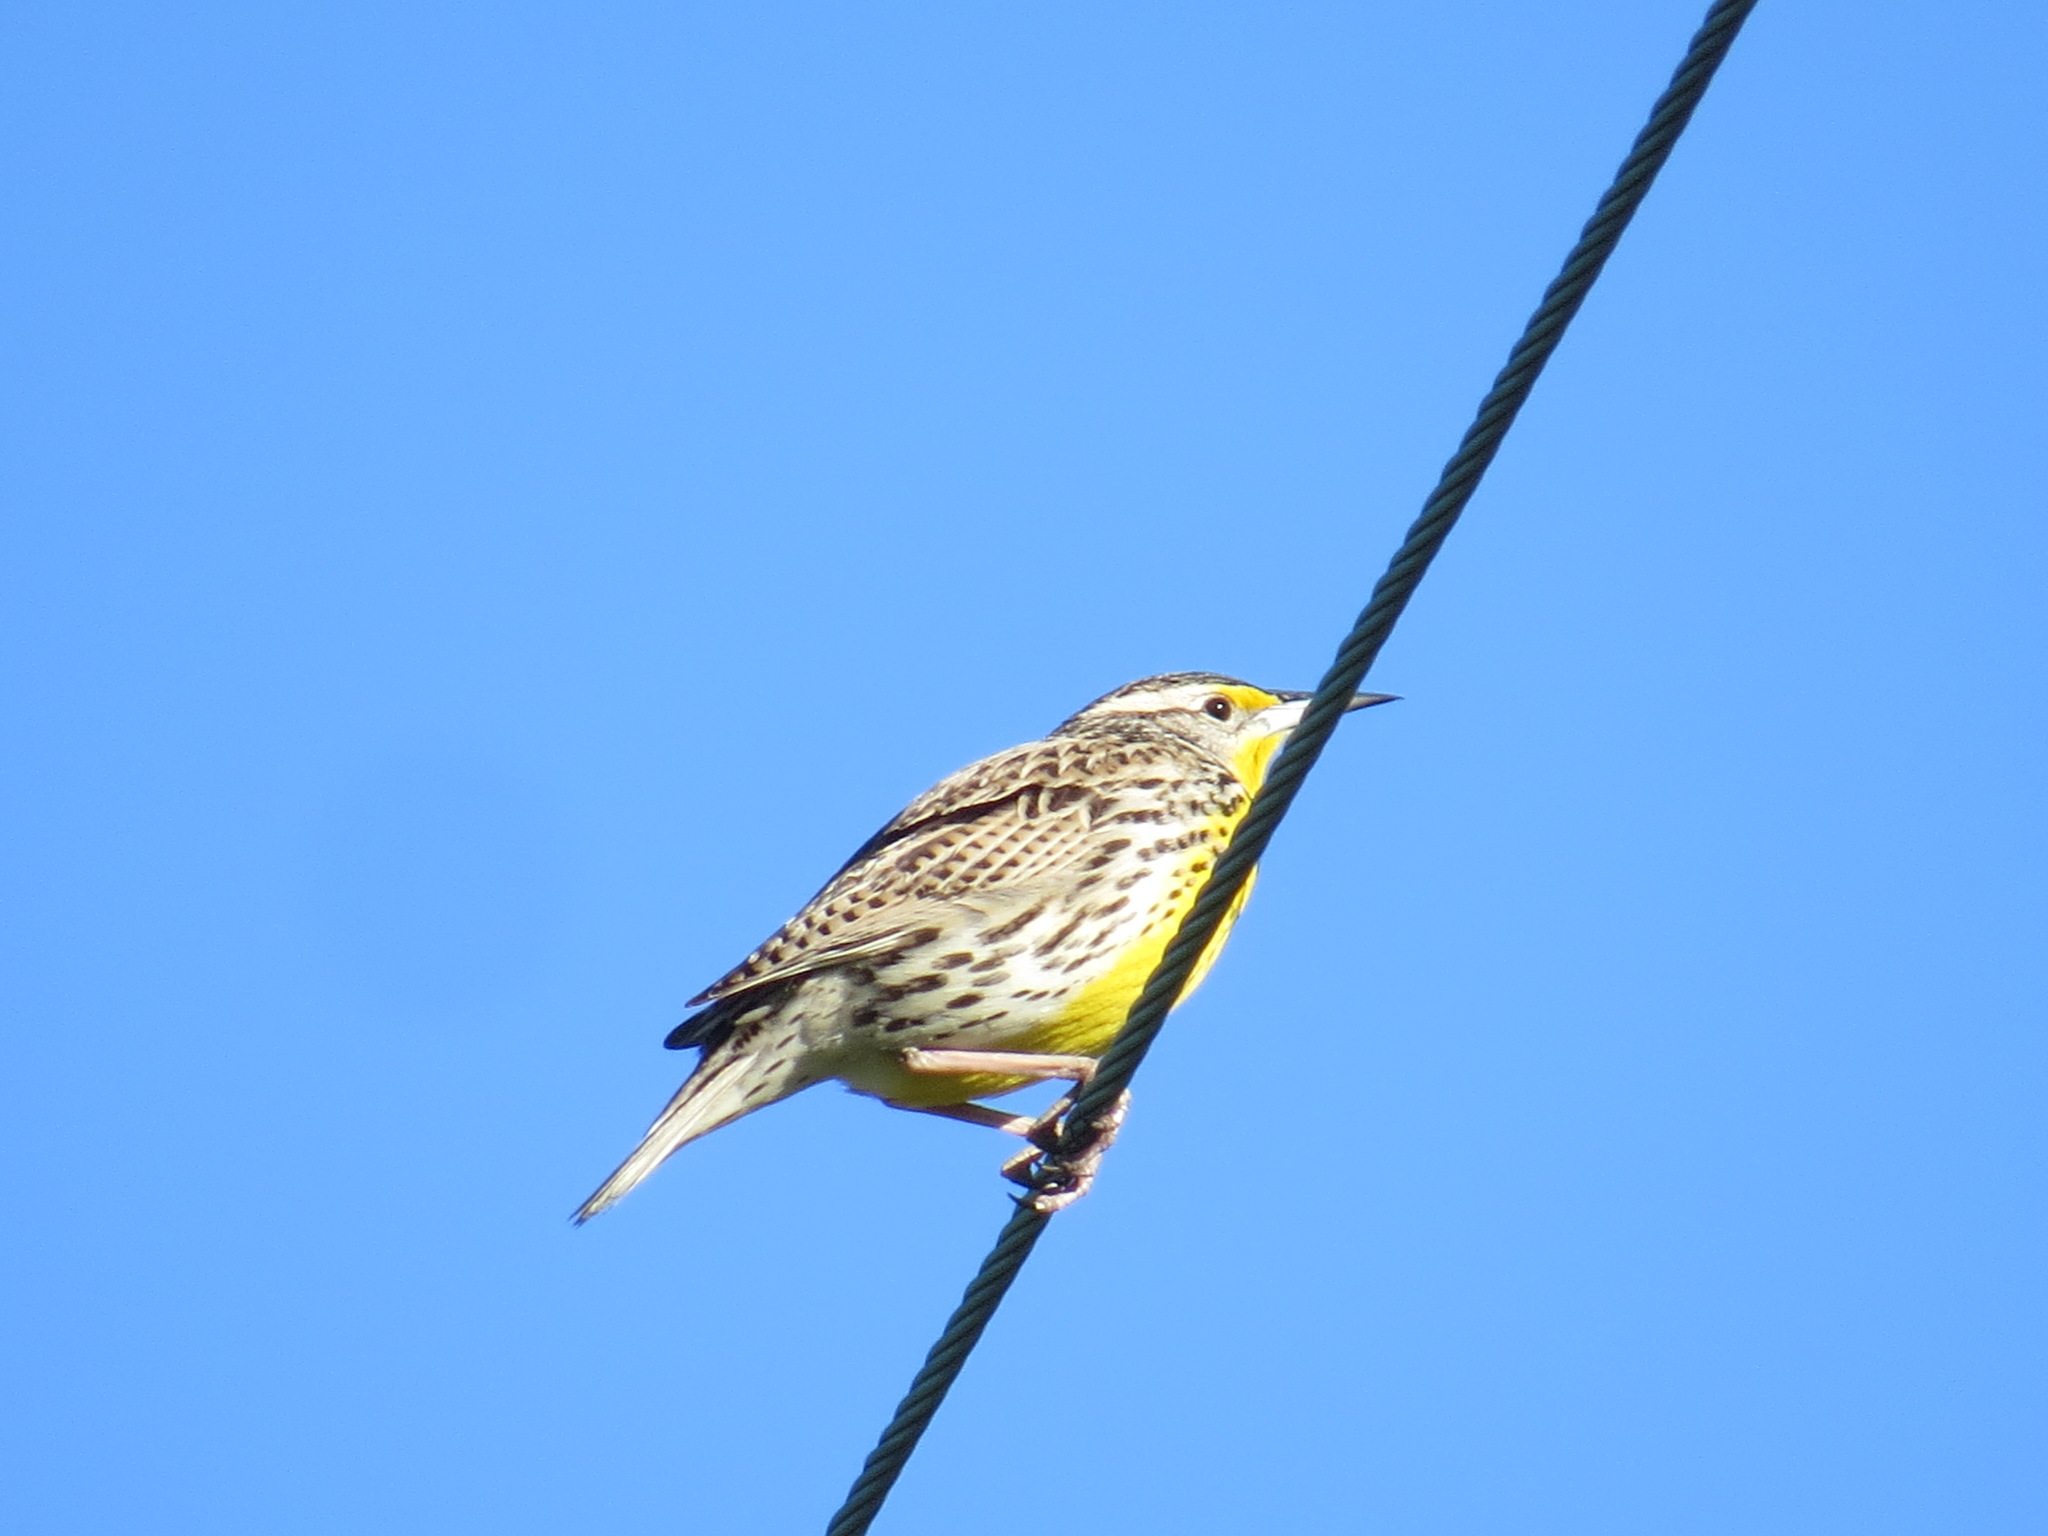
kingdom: Animalia
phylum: Chordata
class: Aves
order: Passeriformes
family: Icteridae
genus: Sturnella
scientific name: Sturnella neglecta
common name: Western meadowlark
